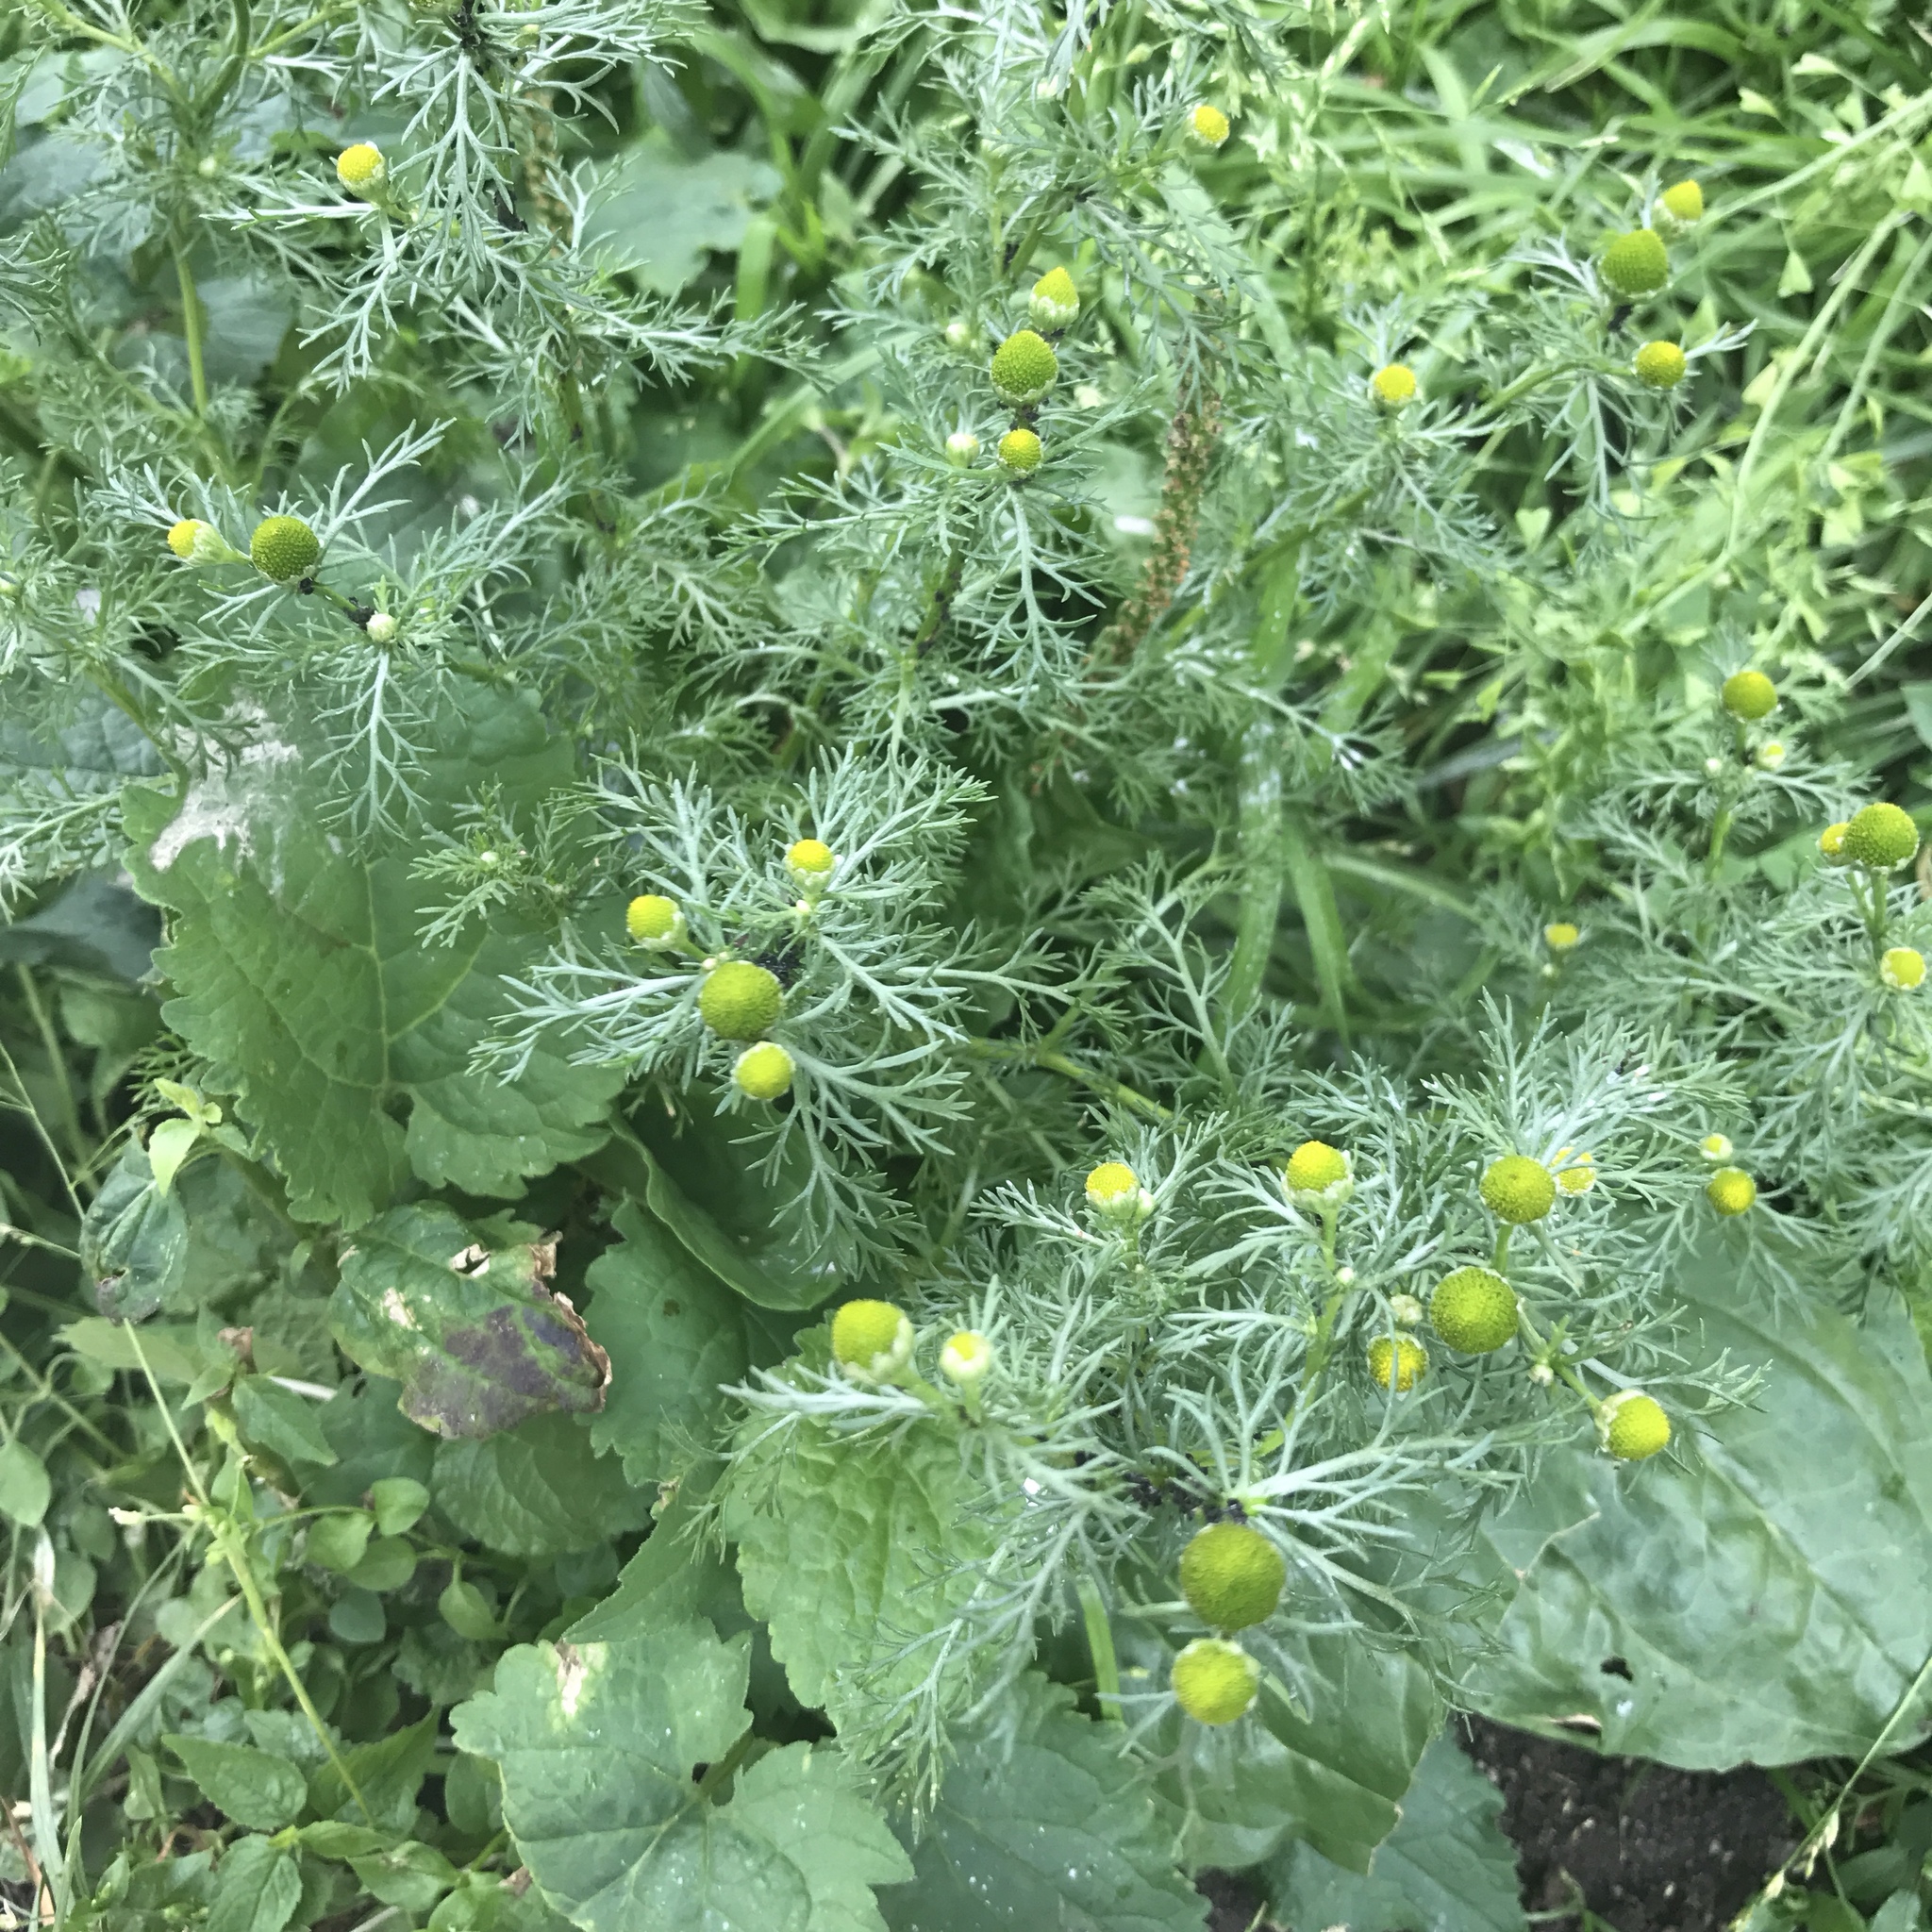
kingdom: Plantae
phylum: Tracheophyta
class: Magnoliopsida
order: Asterales
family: Asteraceae
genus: Matricaria
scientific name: Matricaria discoidea
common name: Disc mayweed
